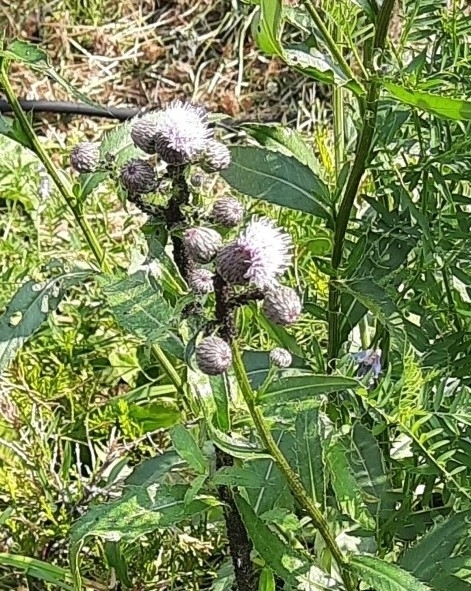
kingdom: Plantae
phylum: Tracheophyta
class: Magnoliopsida
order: Asterales
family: Asteraceae
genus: Cirsium
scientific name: Cirsium arvense
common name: Creeping thistle
